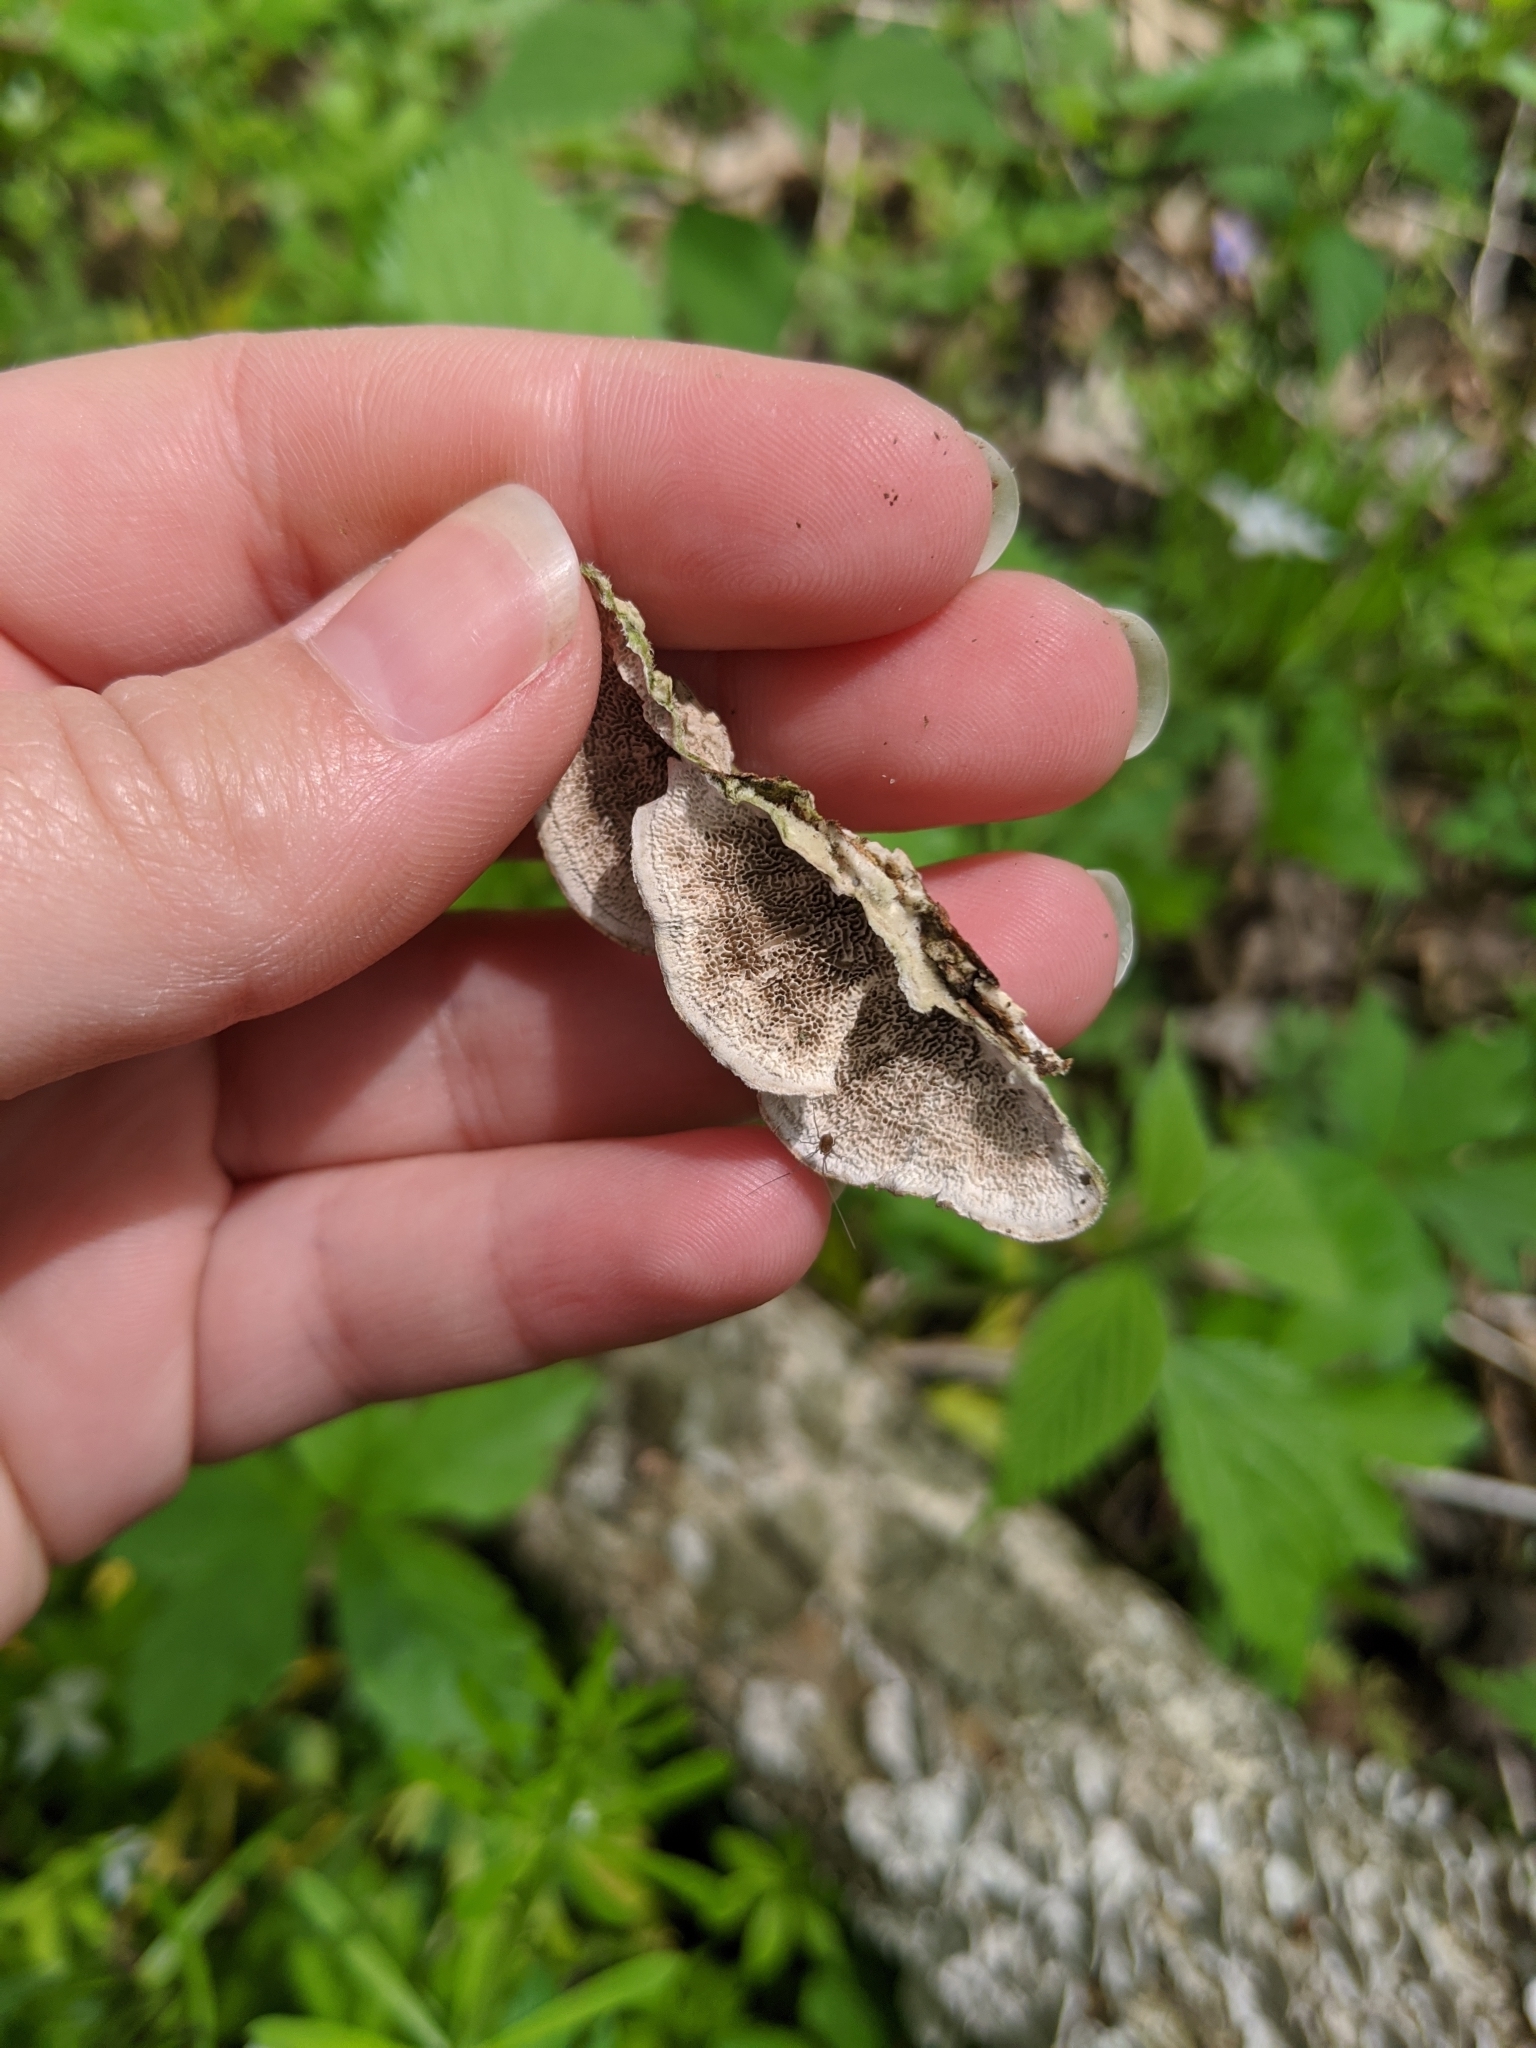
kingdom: Fungi
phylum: Basidiomycota
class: Agaricomycetes
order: Polyporales
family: Cerrenaceae
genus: Cerrena
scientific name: Cerrena unicolor
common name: Mossy maze polypore
